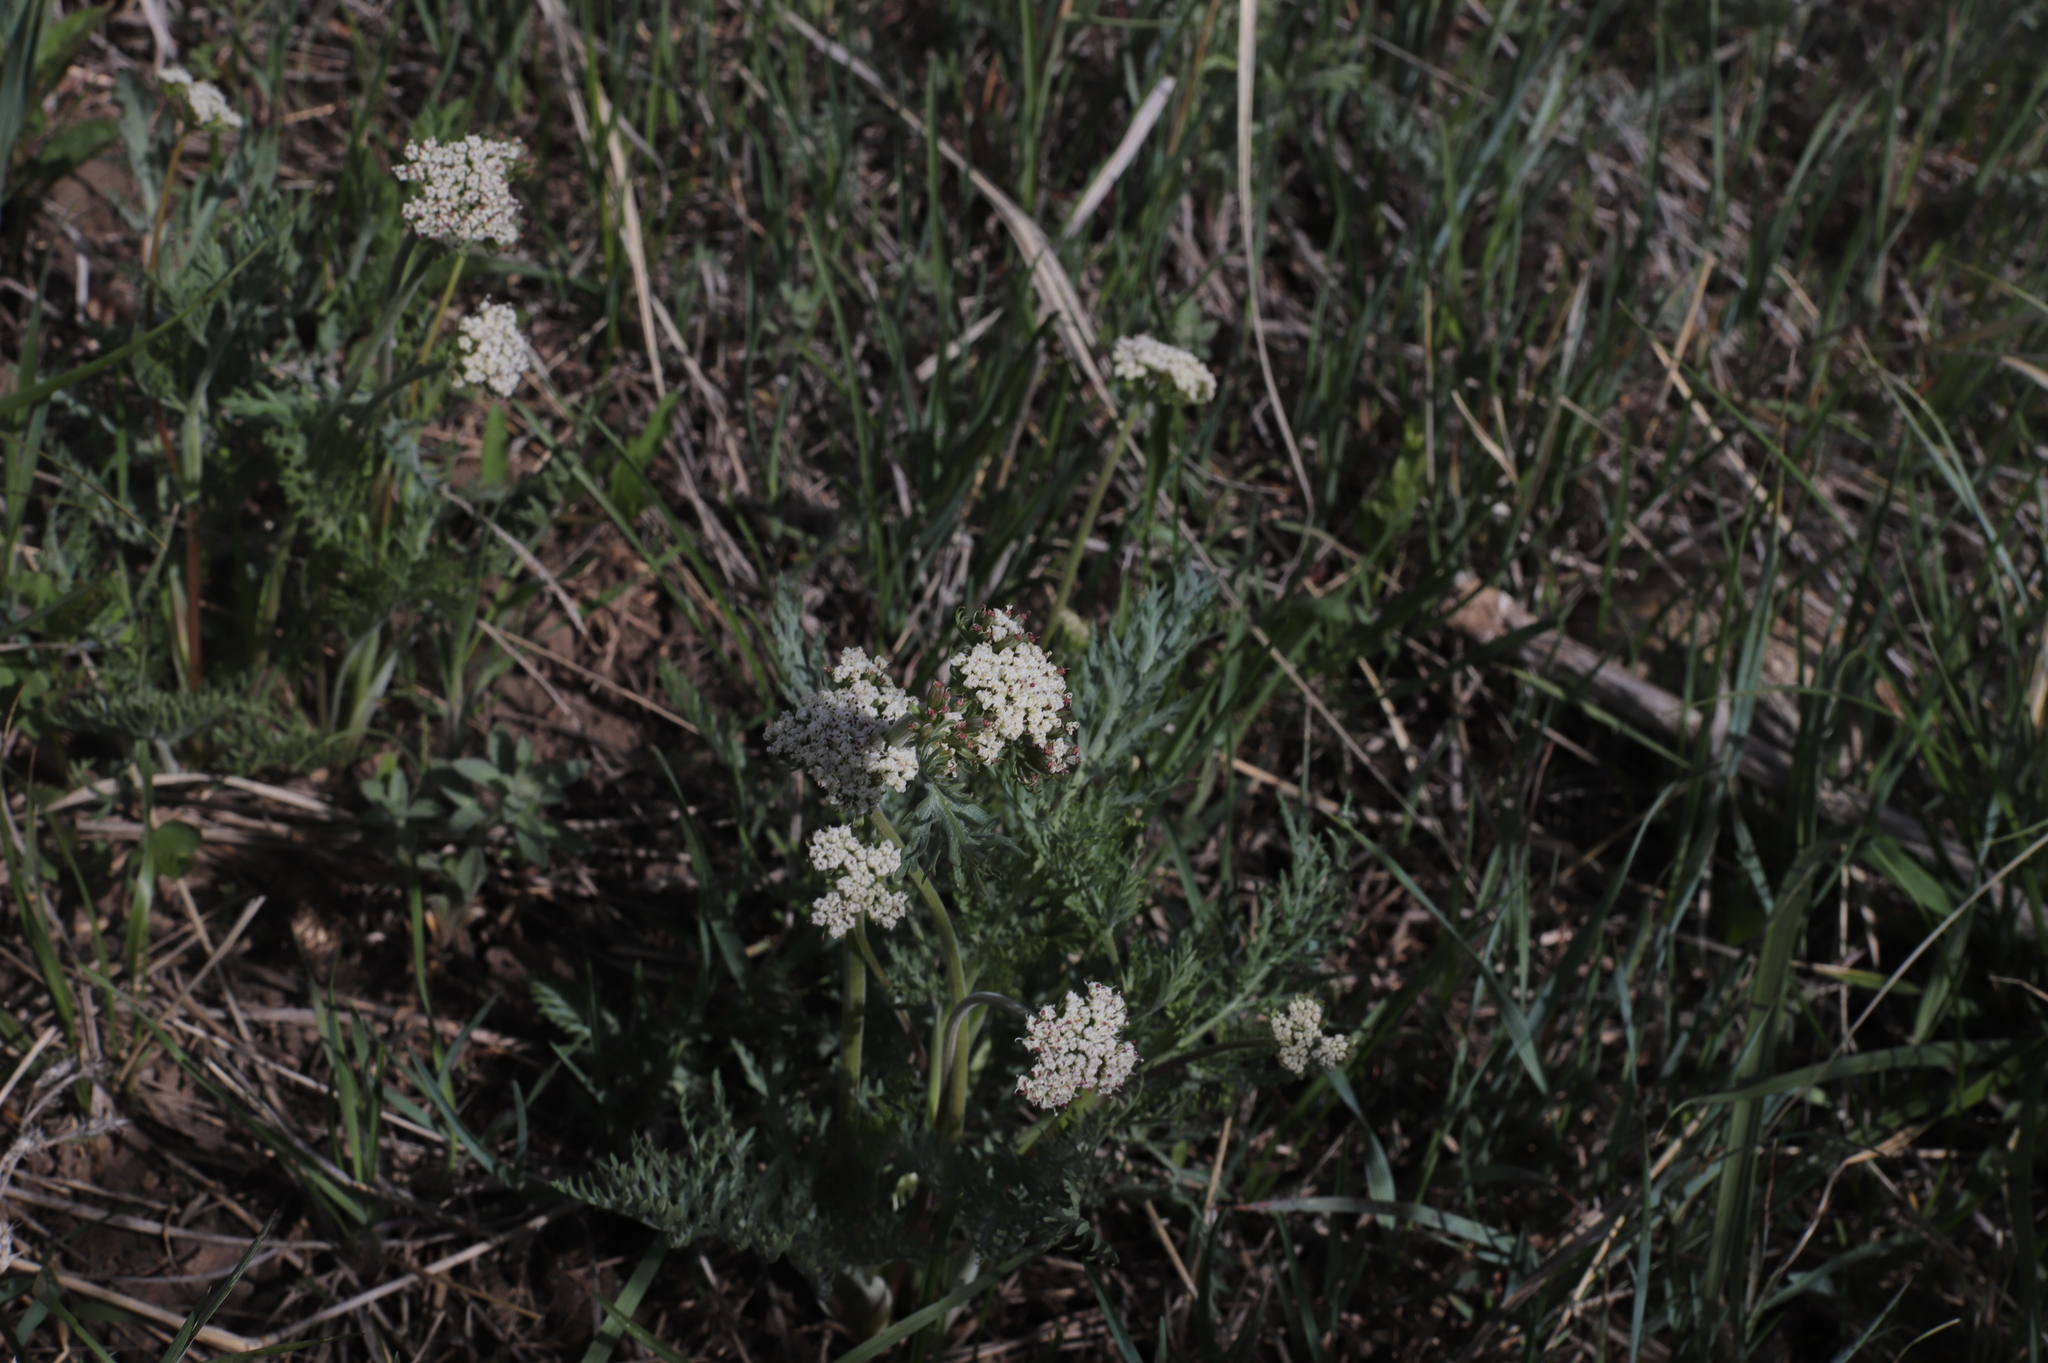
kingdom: Plantae
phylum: Tracheophyta
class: Magnoliopsida
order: Apiales
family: Apiaceae
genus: Lomatium
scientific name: Lomatium orientale
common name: Eastern cous
